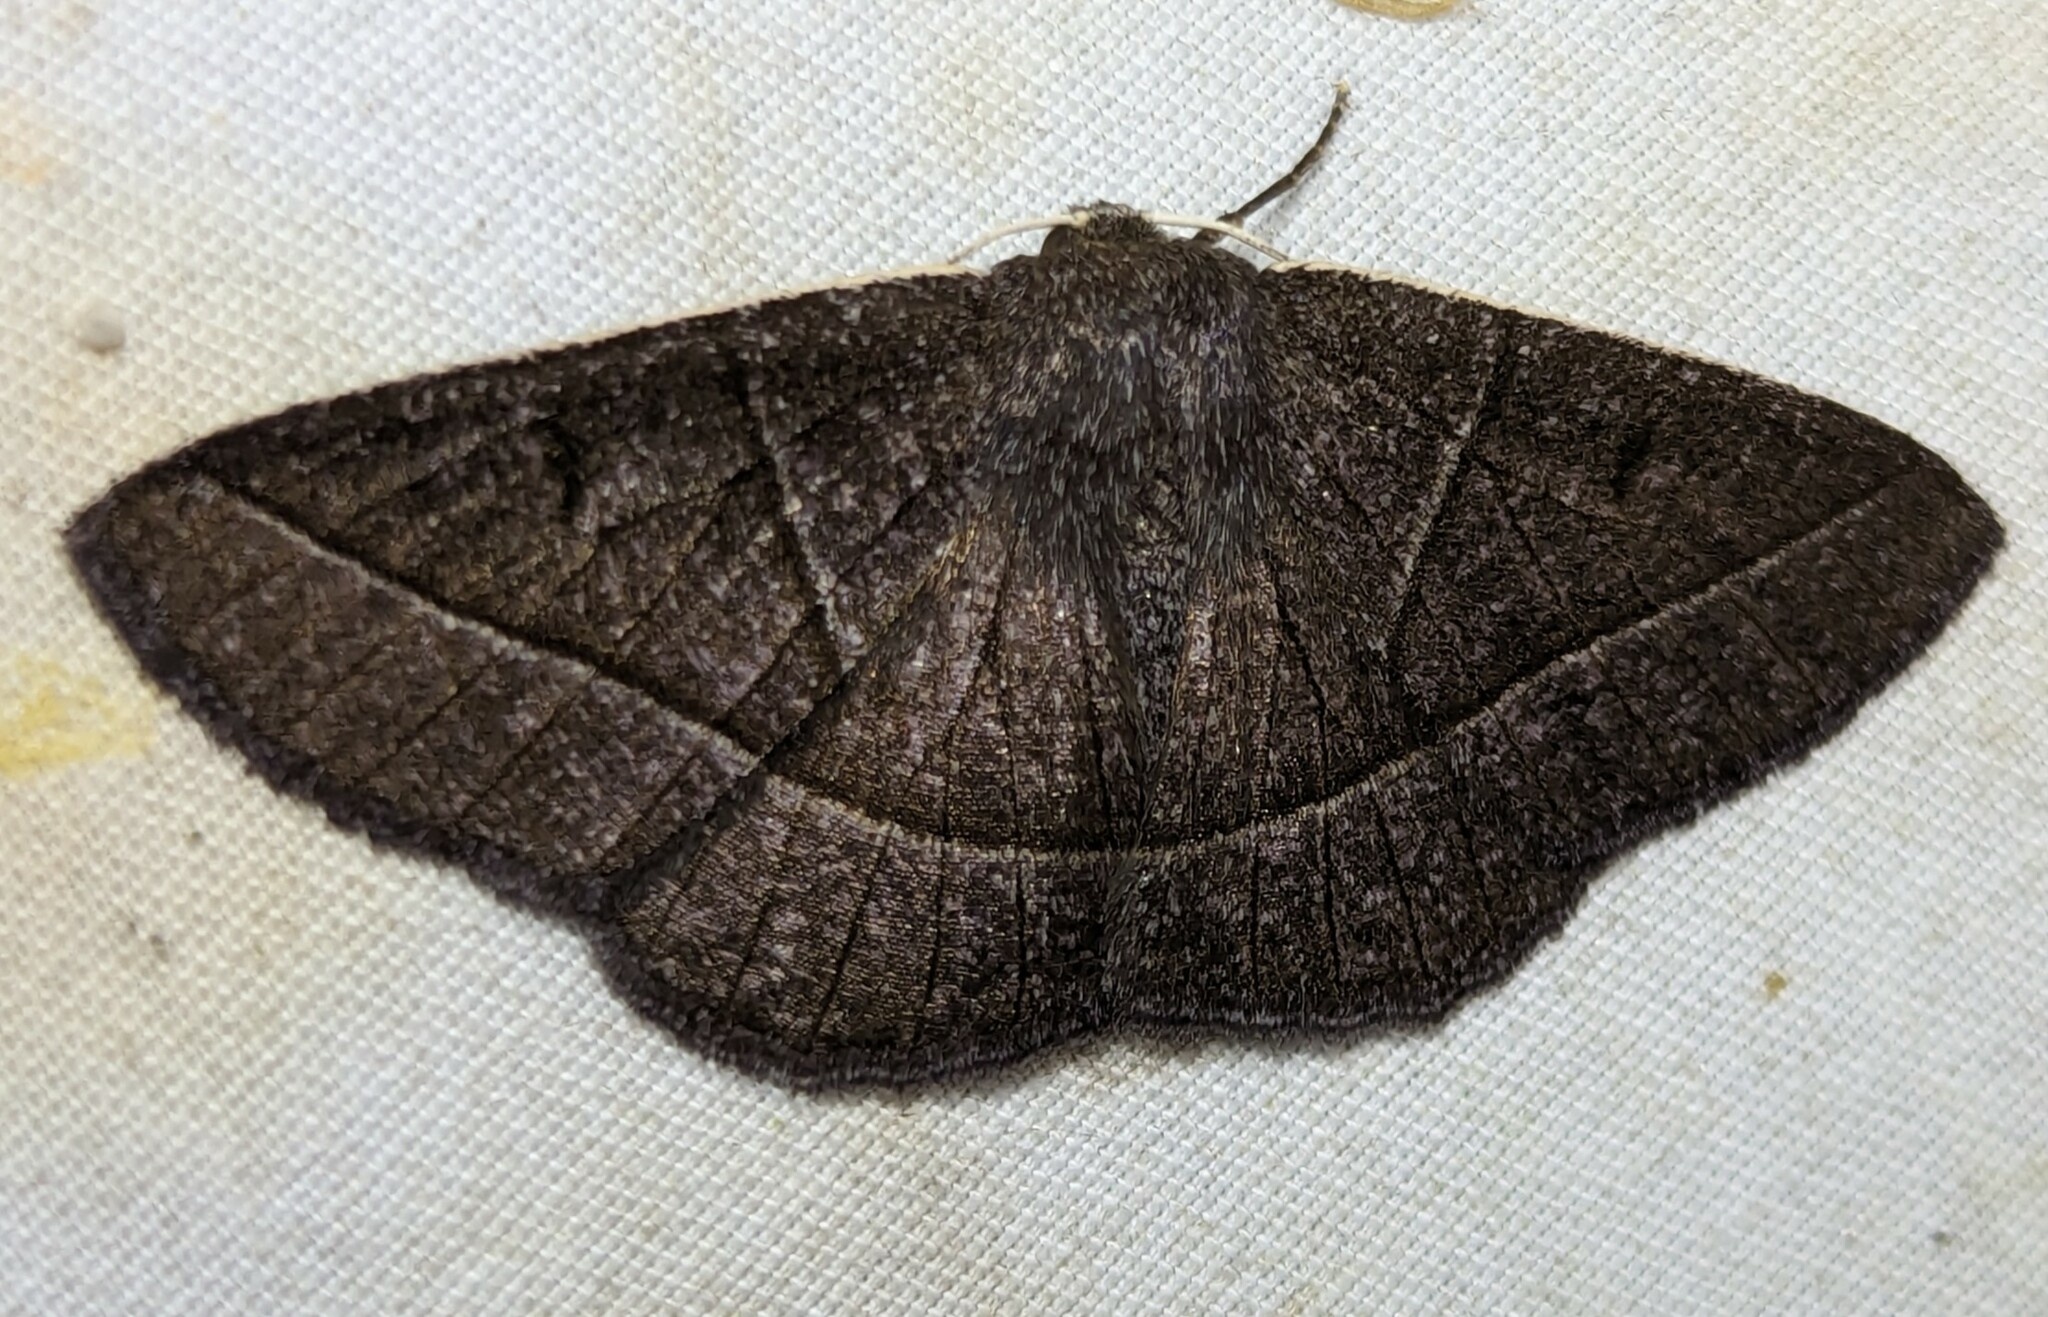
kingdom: Animalia
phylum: Arthropoda
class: Insecta
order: Lepidoptera
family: Geometridae
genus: Cosmophyga
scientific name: Cosmophyga mosticana
